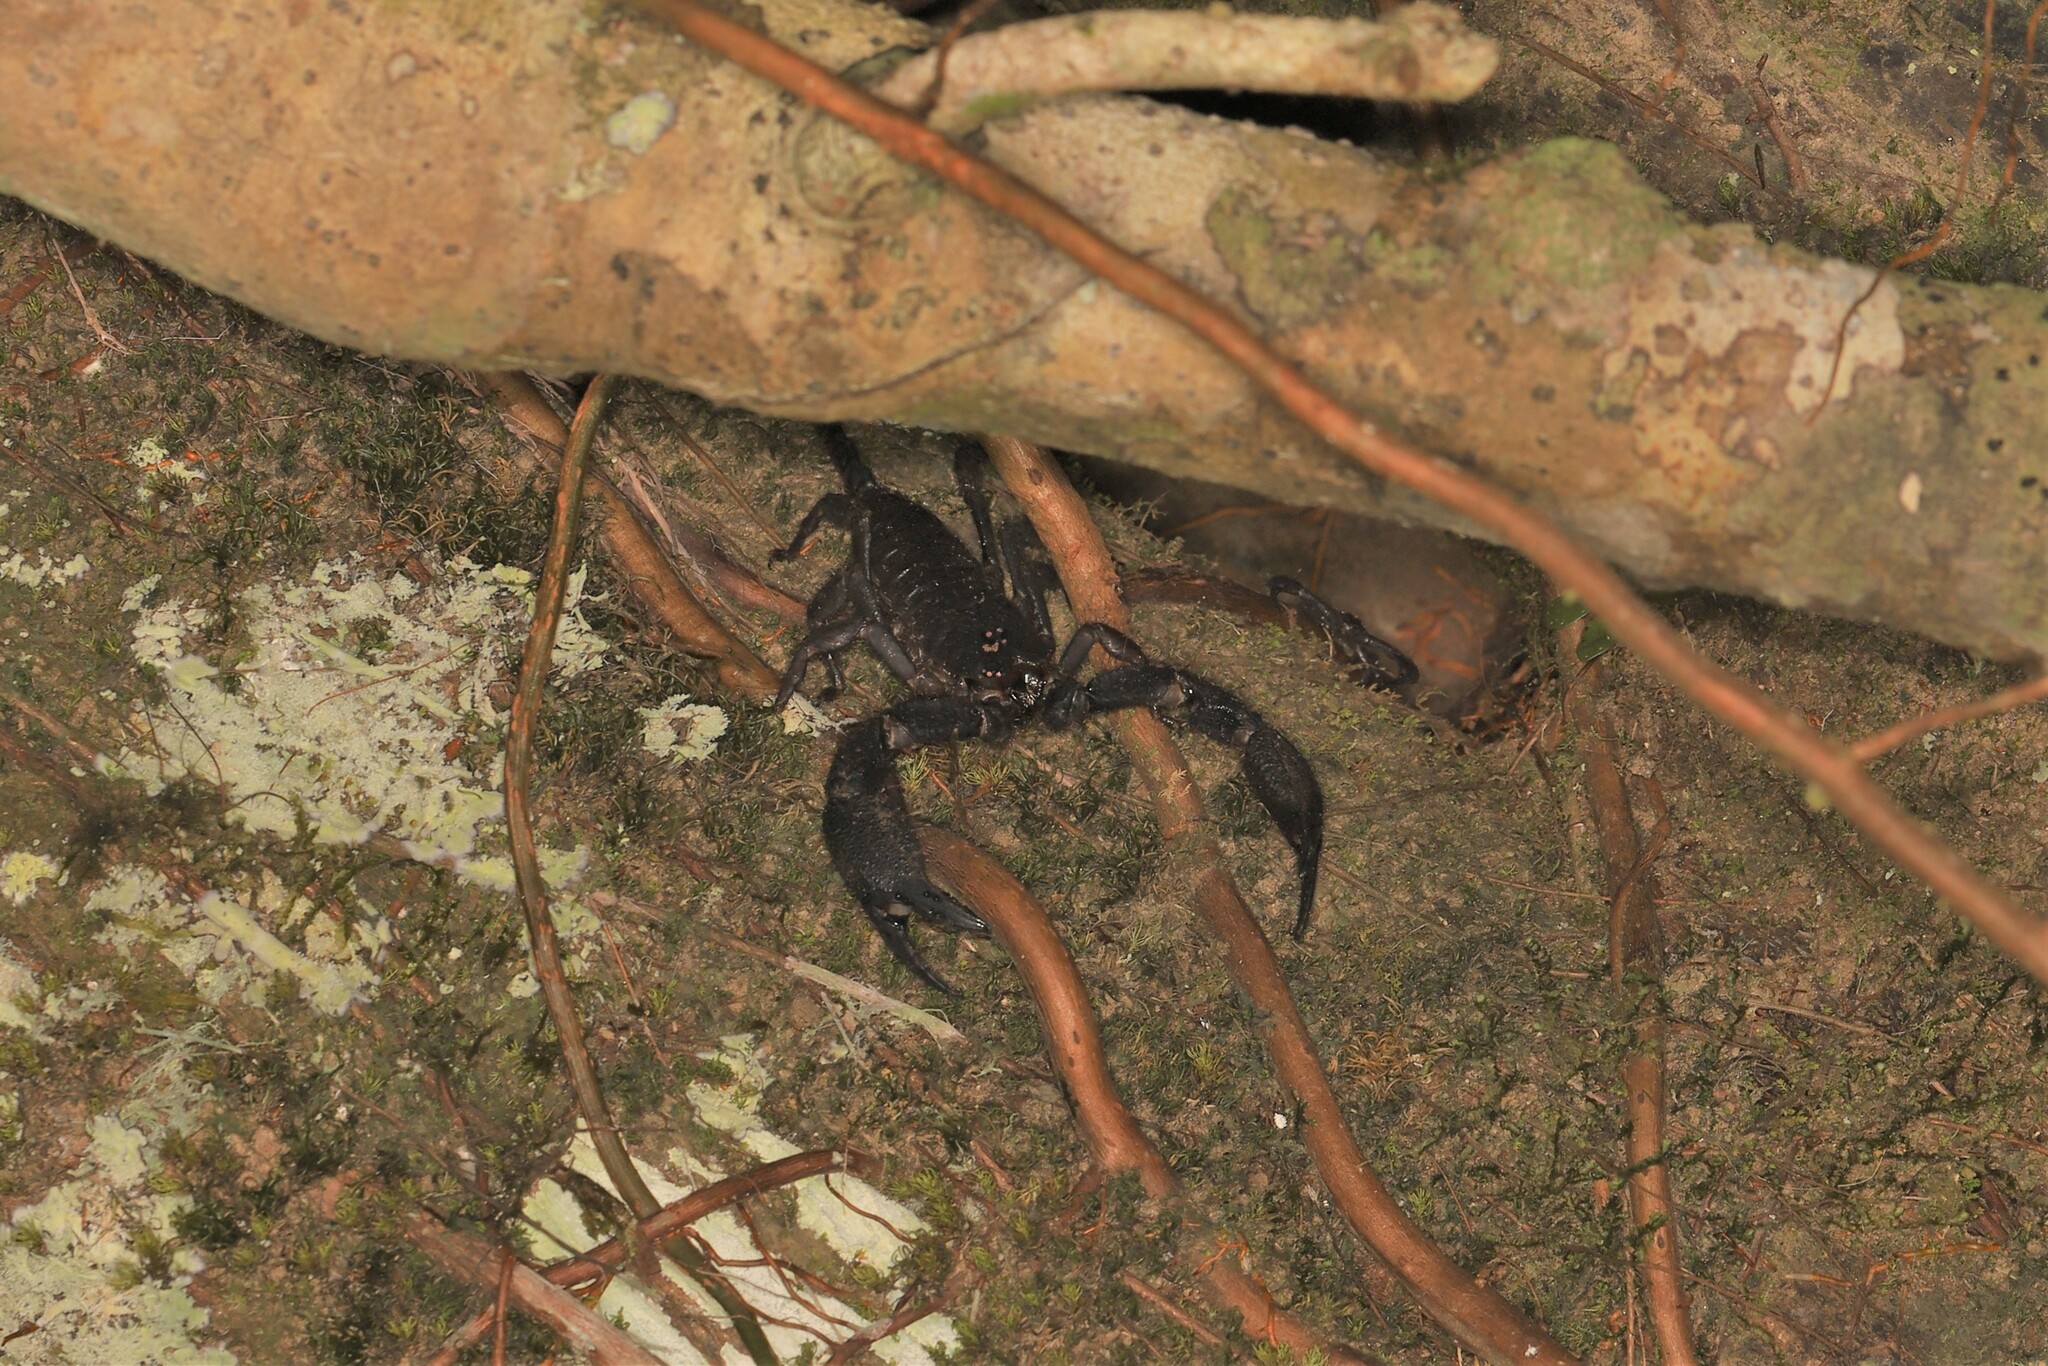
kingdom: Animalia
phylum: Arthropoda
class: Arachnida
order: Scorpiones
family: Hormuridae
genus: Opisthacanthus
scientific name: Opisthacanthus elatus
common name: Scorpions
